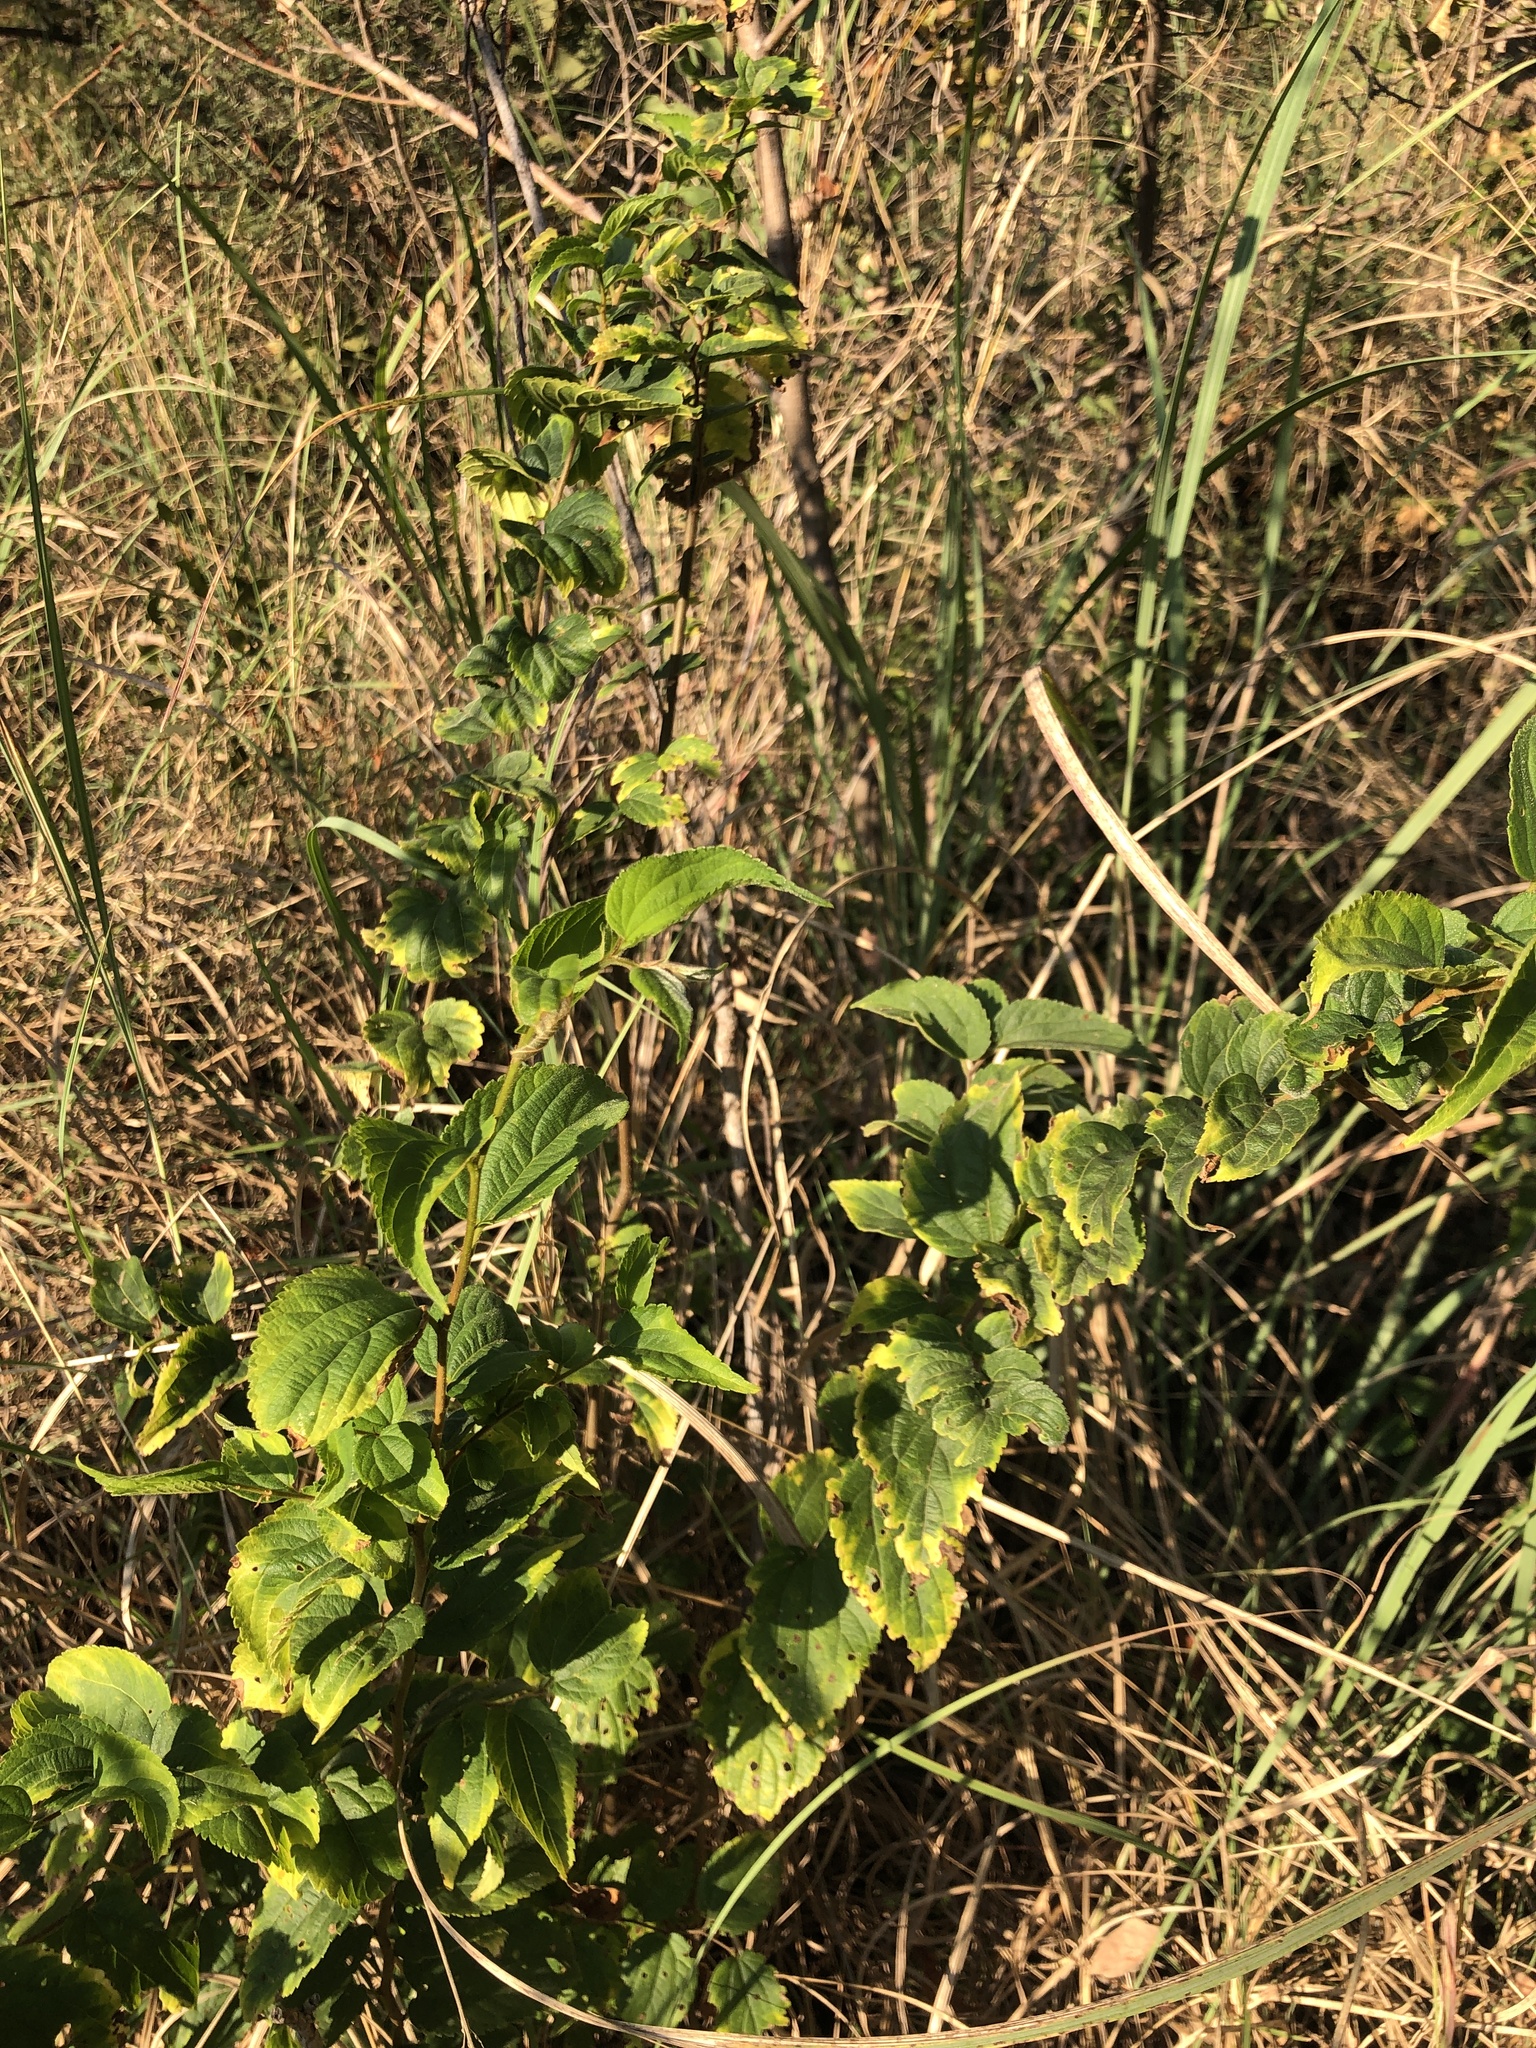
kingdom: Plantae
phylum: Tracheophyta
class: Magnoliopsida
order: Rosales
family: Cannabaceae
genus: Celtis
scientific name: Celtis africana
